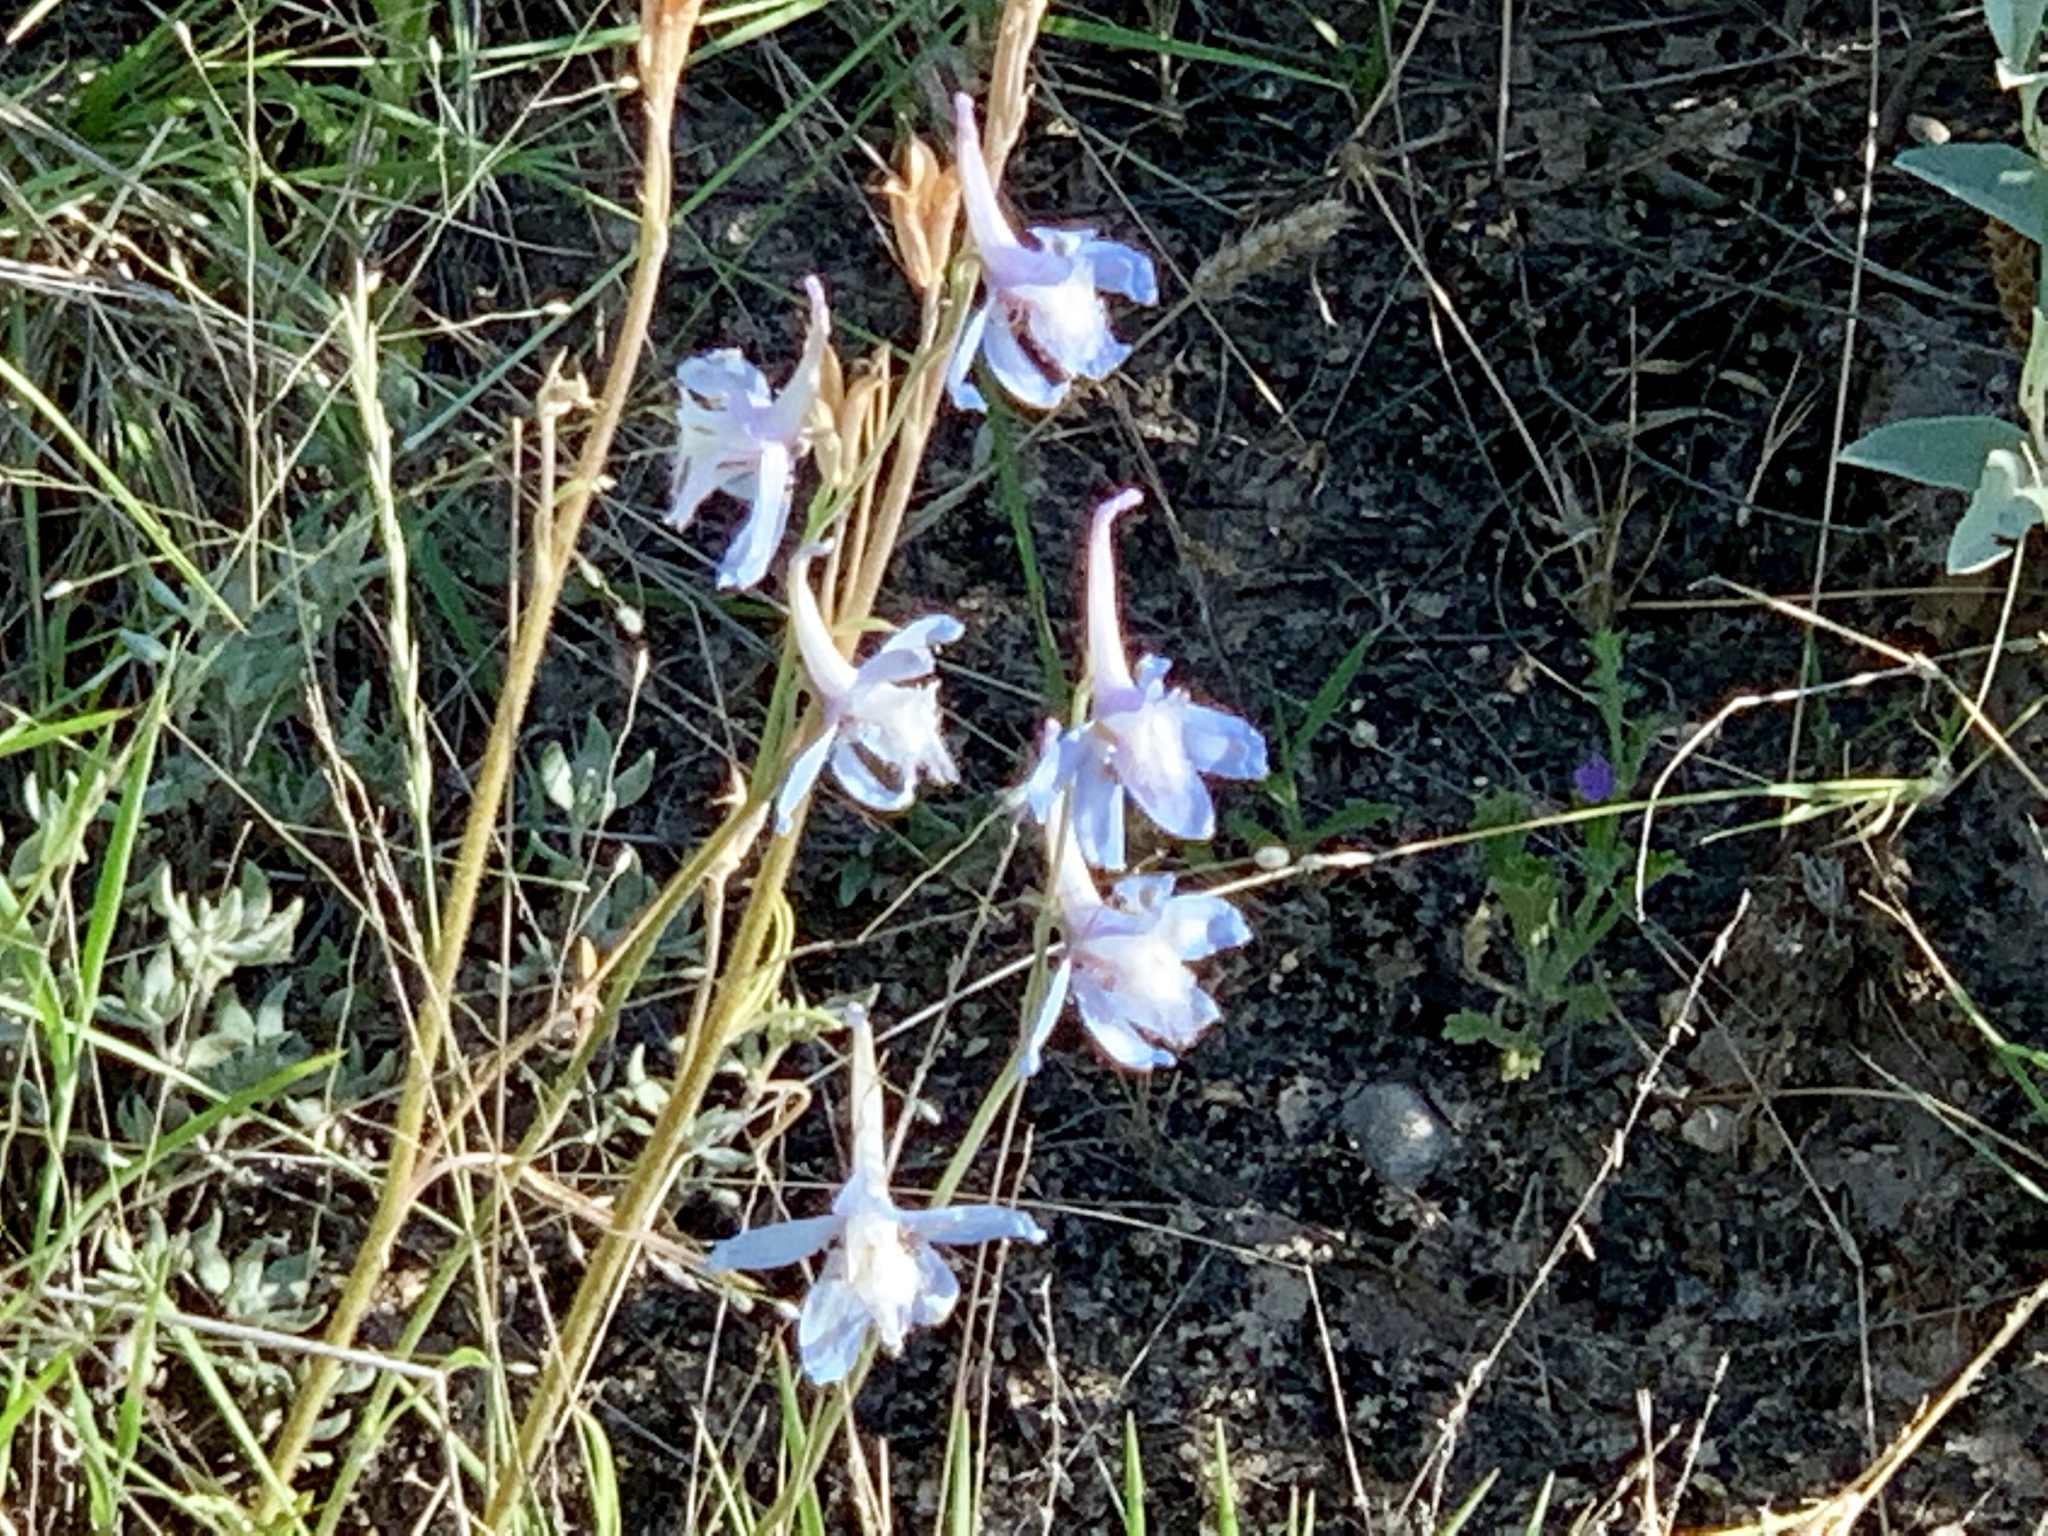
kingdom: Plantae
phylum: Tracheophyta
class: Magnoliopsida
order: Ranunculales
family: Ranunculaceae
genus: Delphinium
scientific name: Delphinium carolinianum
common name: Carolina larkspur
